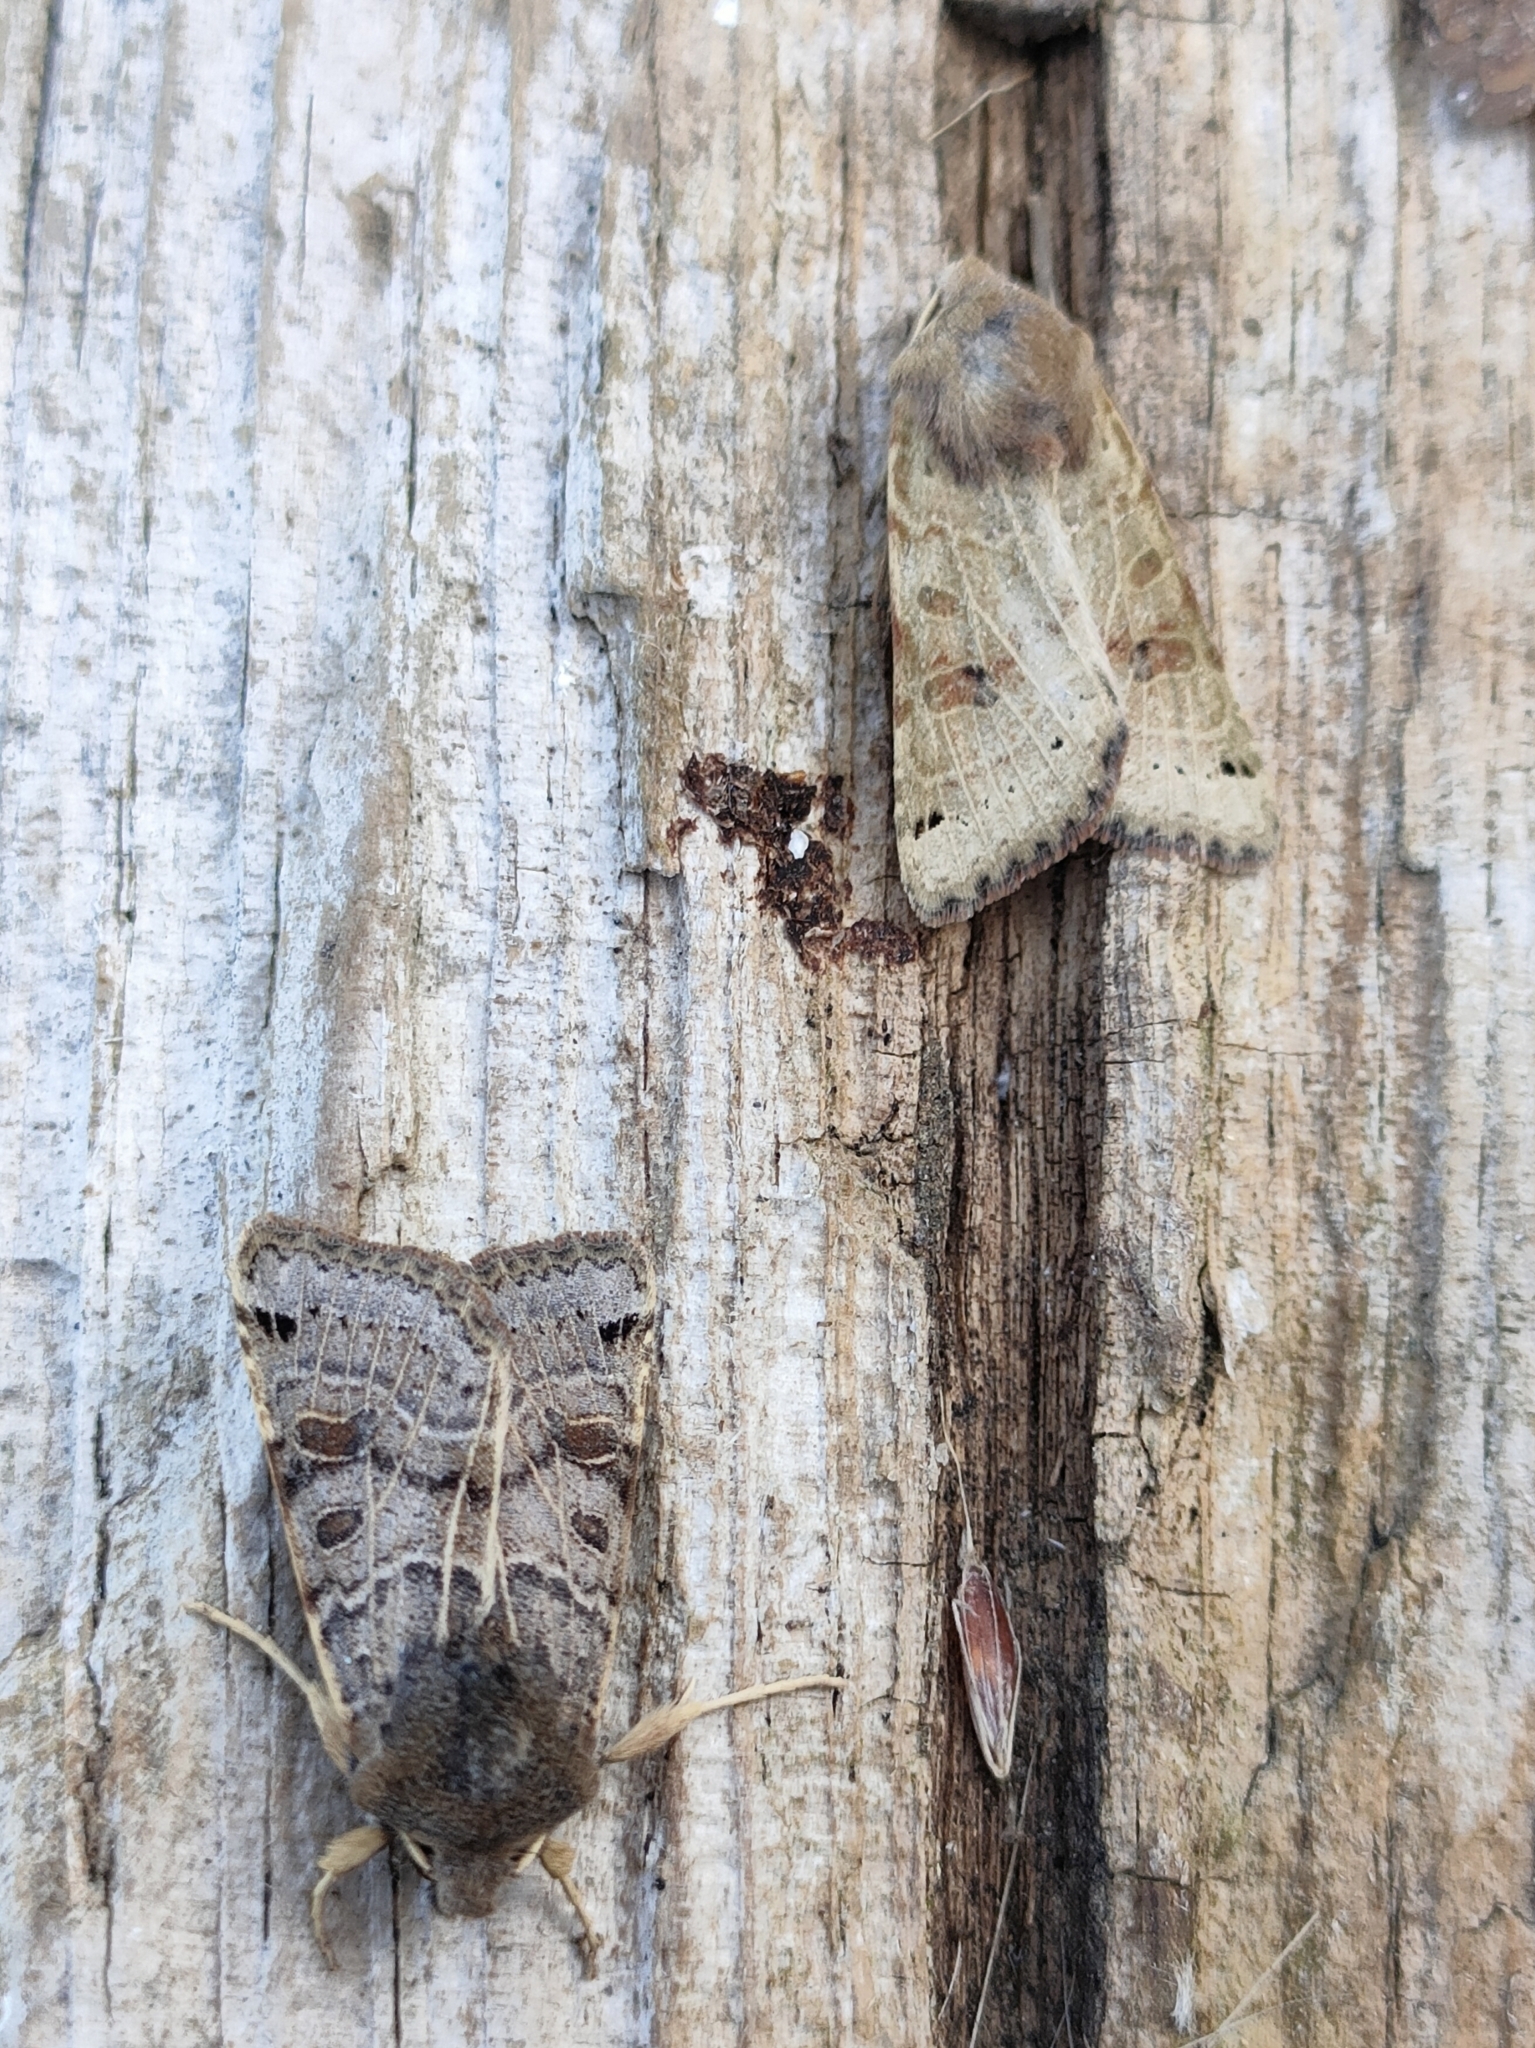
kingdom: Animalia
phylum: Arthropoda
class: Insecta
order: Lepidoptera
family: Noctuidae
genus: Agrochola
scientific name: Agrochola lunosa
